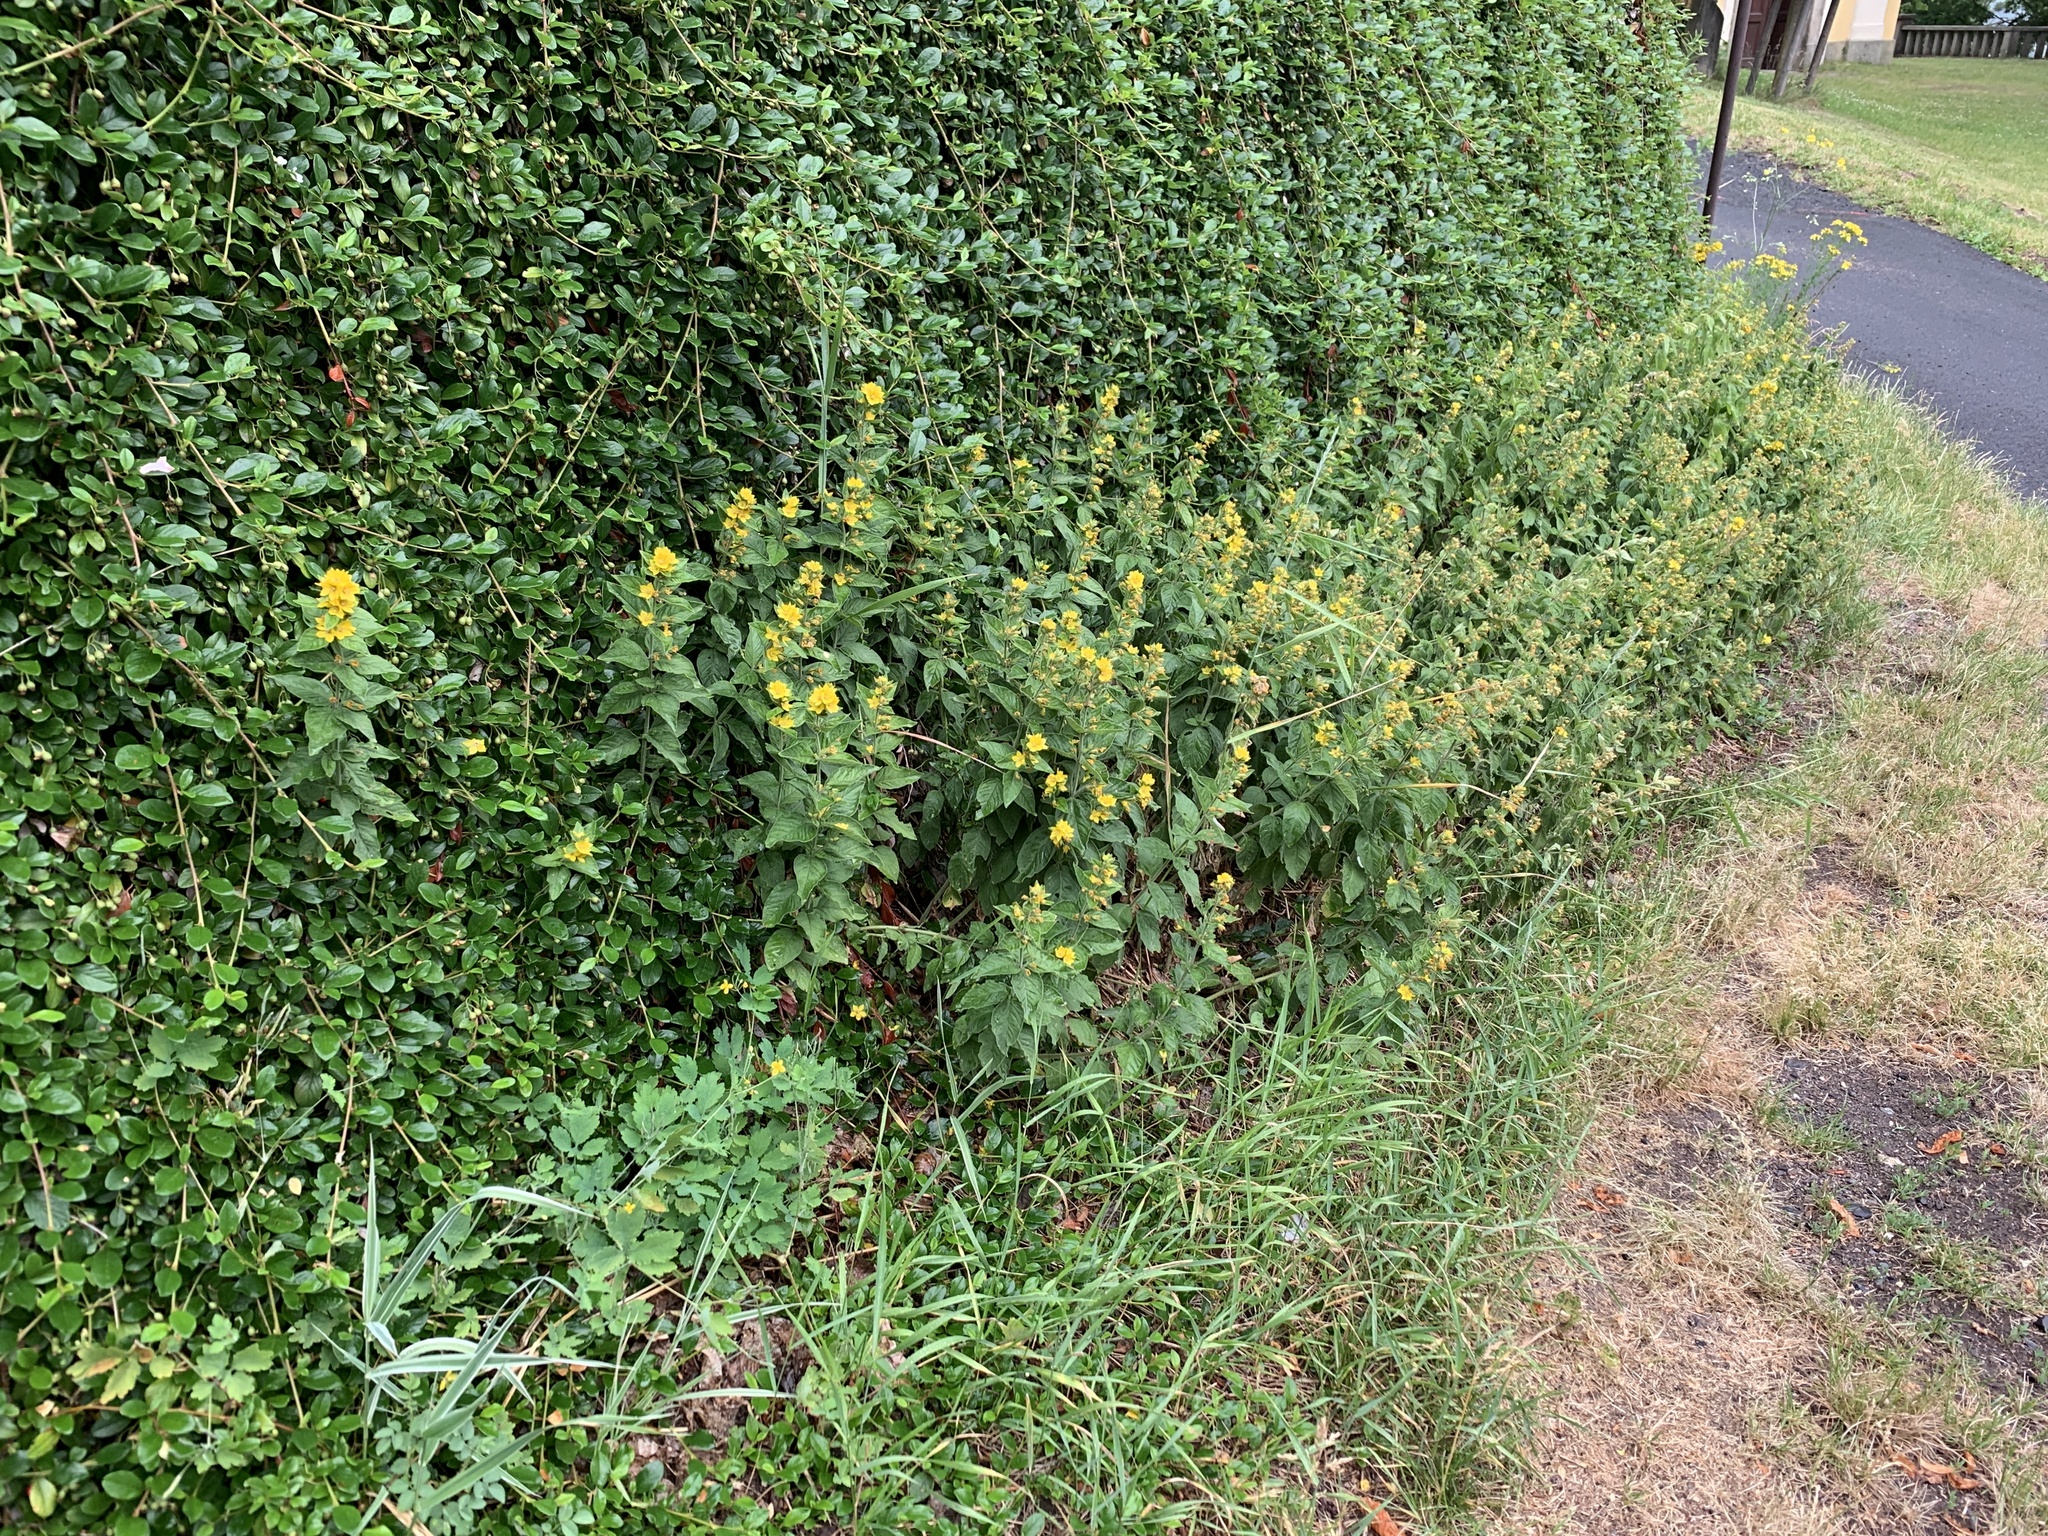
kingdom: Plantae
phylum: Tracheophyta
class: Magnoliopsida
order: Ericales
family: Primulaceae
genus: Lysimachia
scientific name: Lysimachia punctata
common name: Dotted loosestrife
